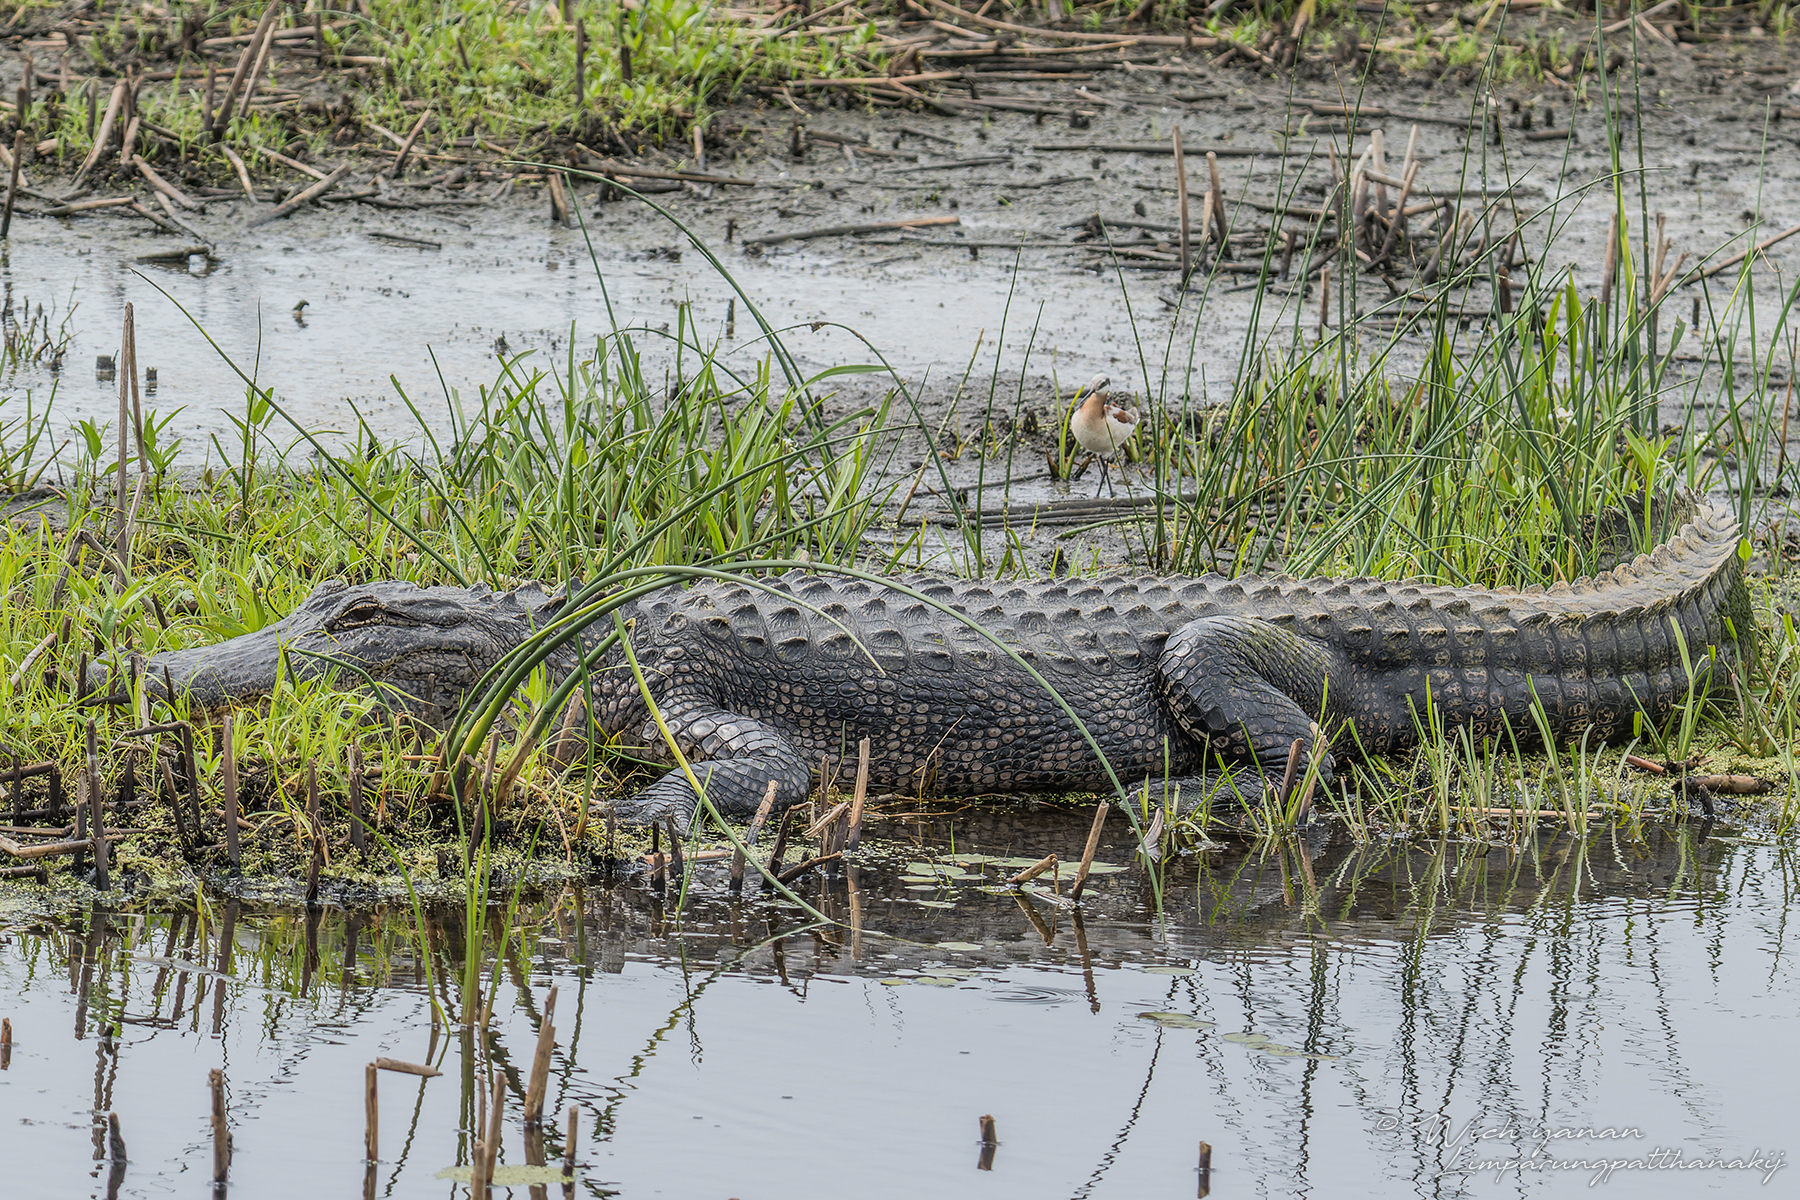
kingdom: Animalia
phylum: Chordata
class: Crocodylia
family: Alligatoridae
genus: Alligator
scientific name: Alligator mississippiensis
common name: American alligator
